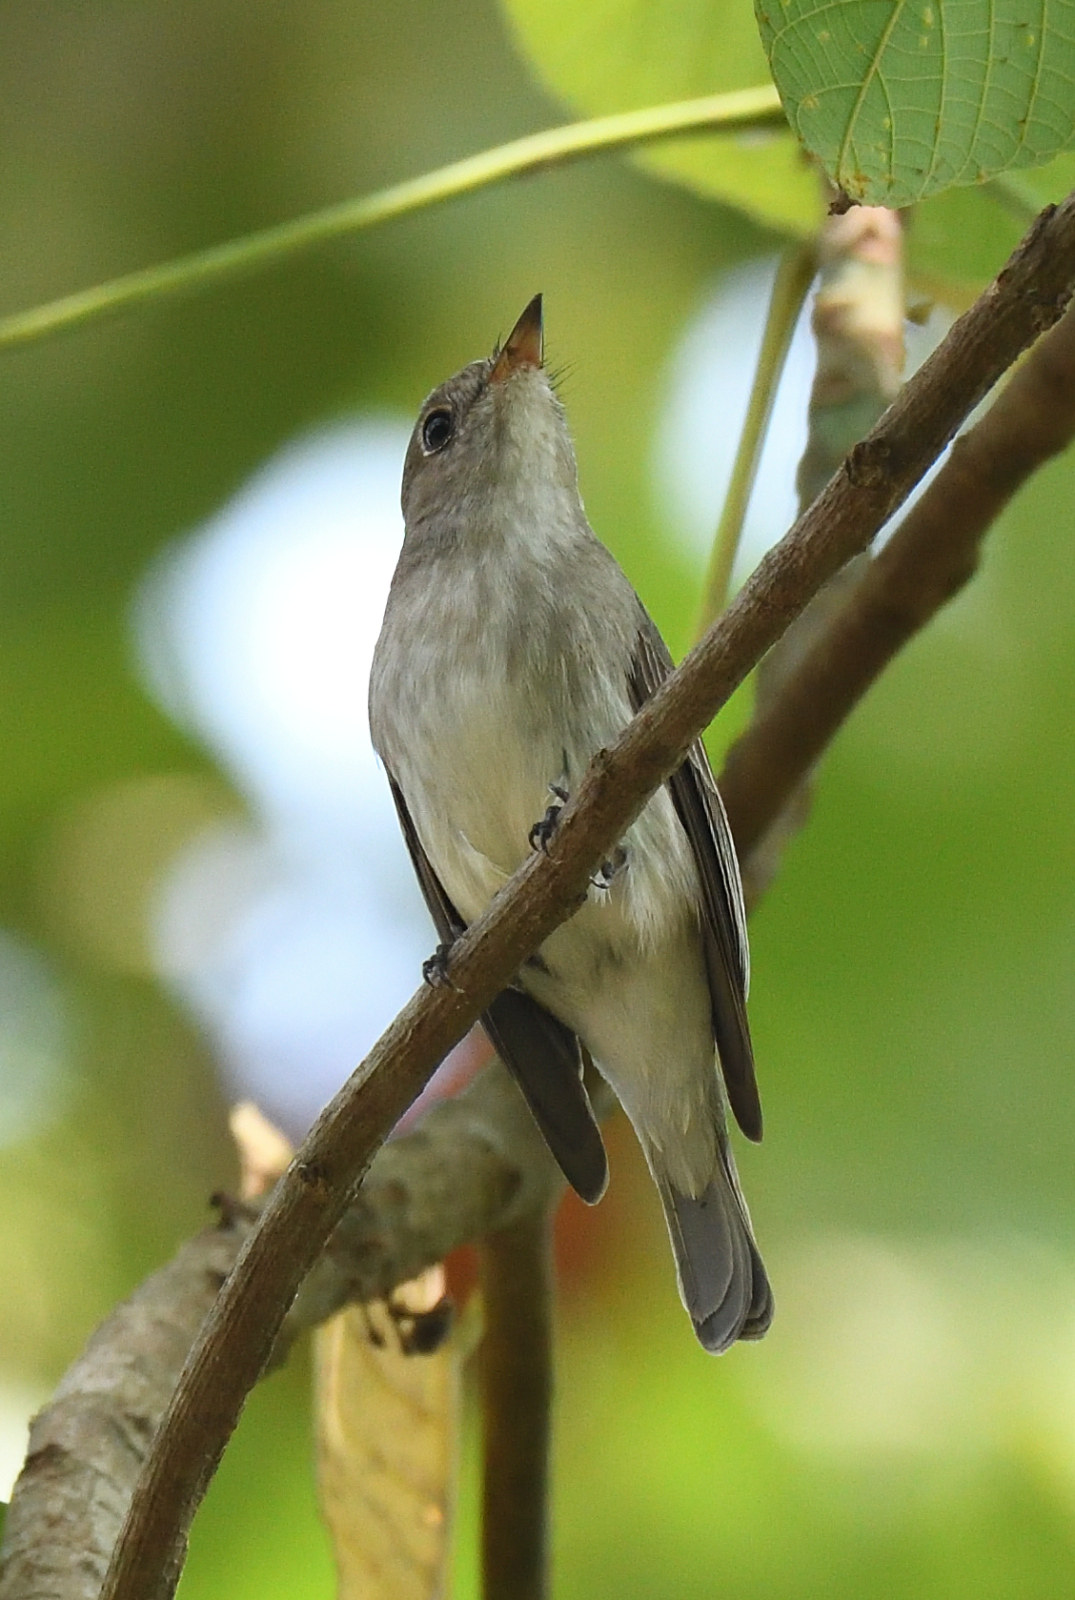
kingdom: Animalia
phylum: Chordata
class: Aves
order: Passeriformes
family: Muscicapidae
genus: Muscicapa
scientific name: Muscicapa latirostris
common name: Asian brown flycatcher
